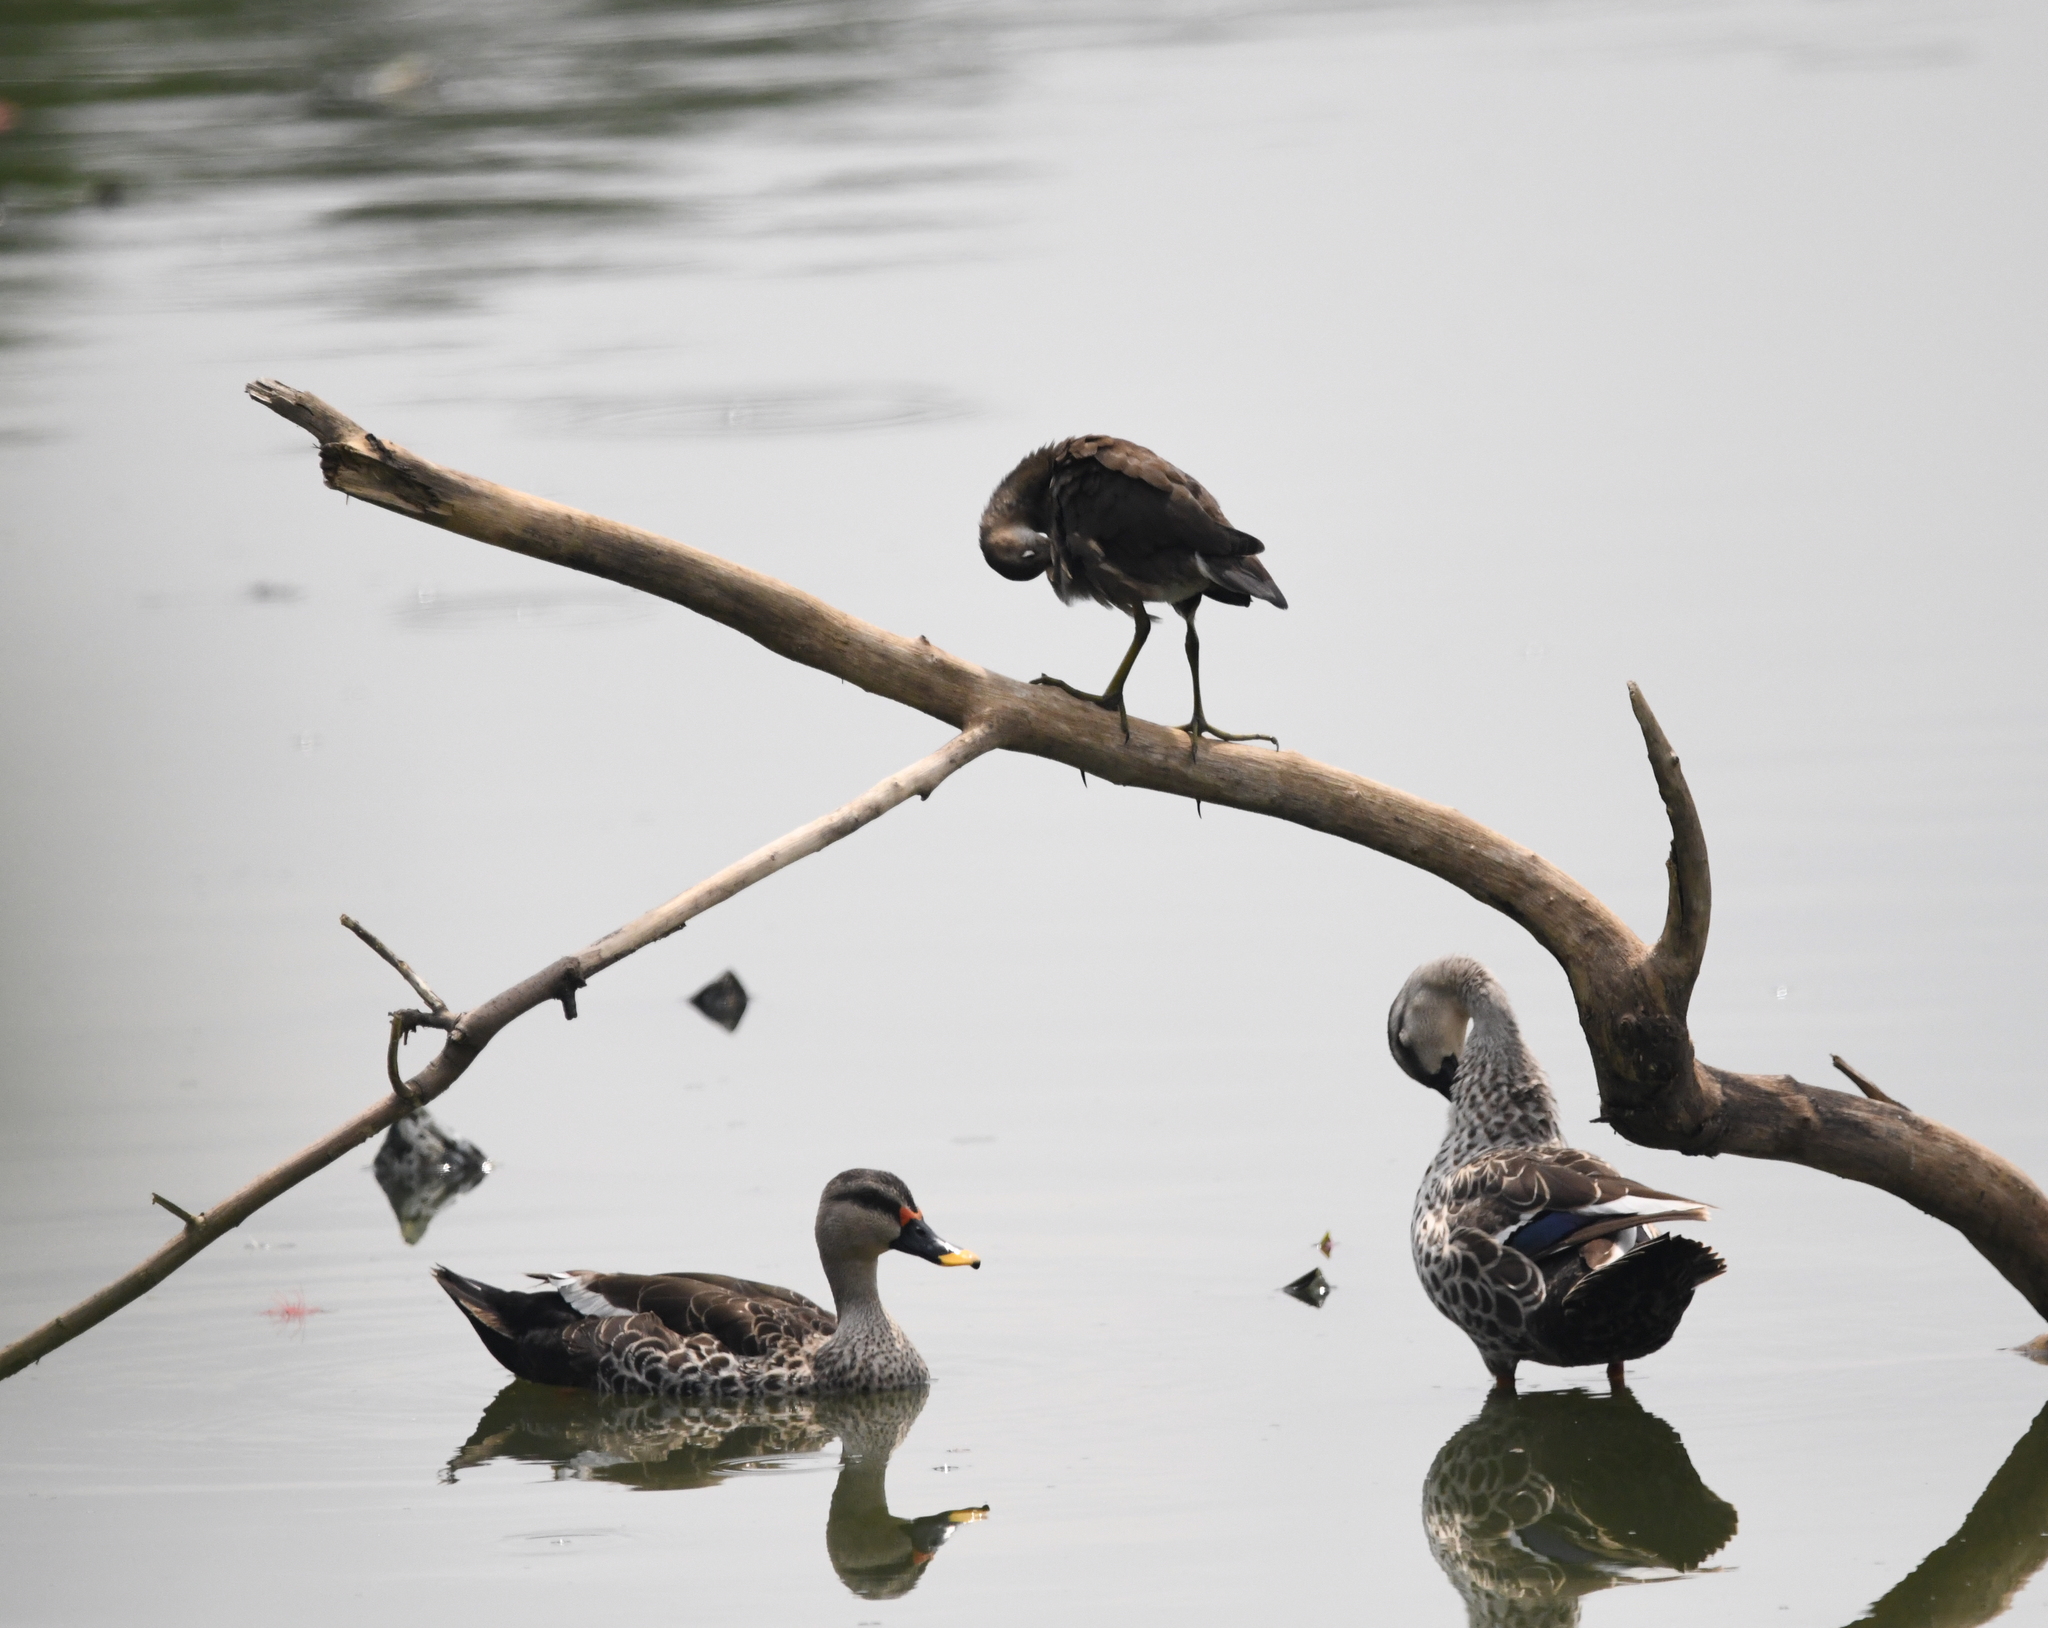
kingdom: Animalia
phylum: Chordata
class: Aves
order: Anseriformes
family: Anatidae
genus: Anas
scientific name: Anas poecilorhyncha
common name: Indian spot-billed duck
